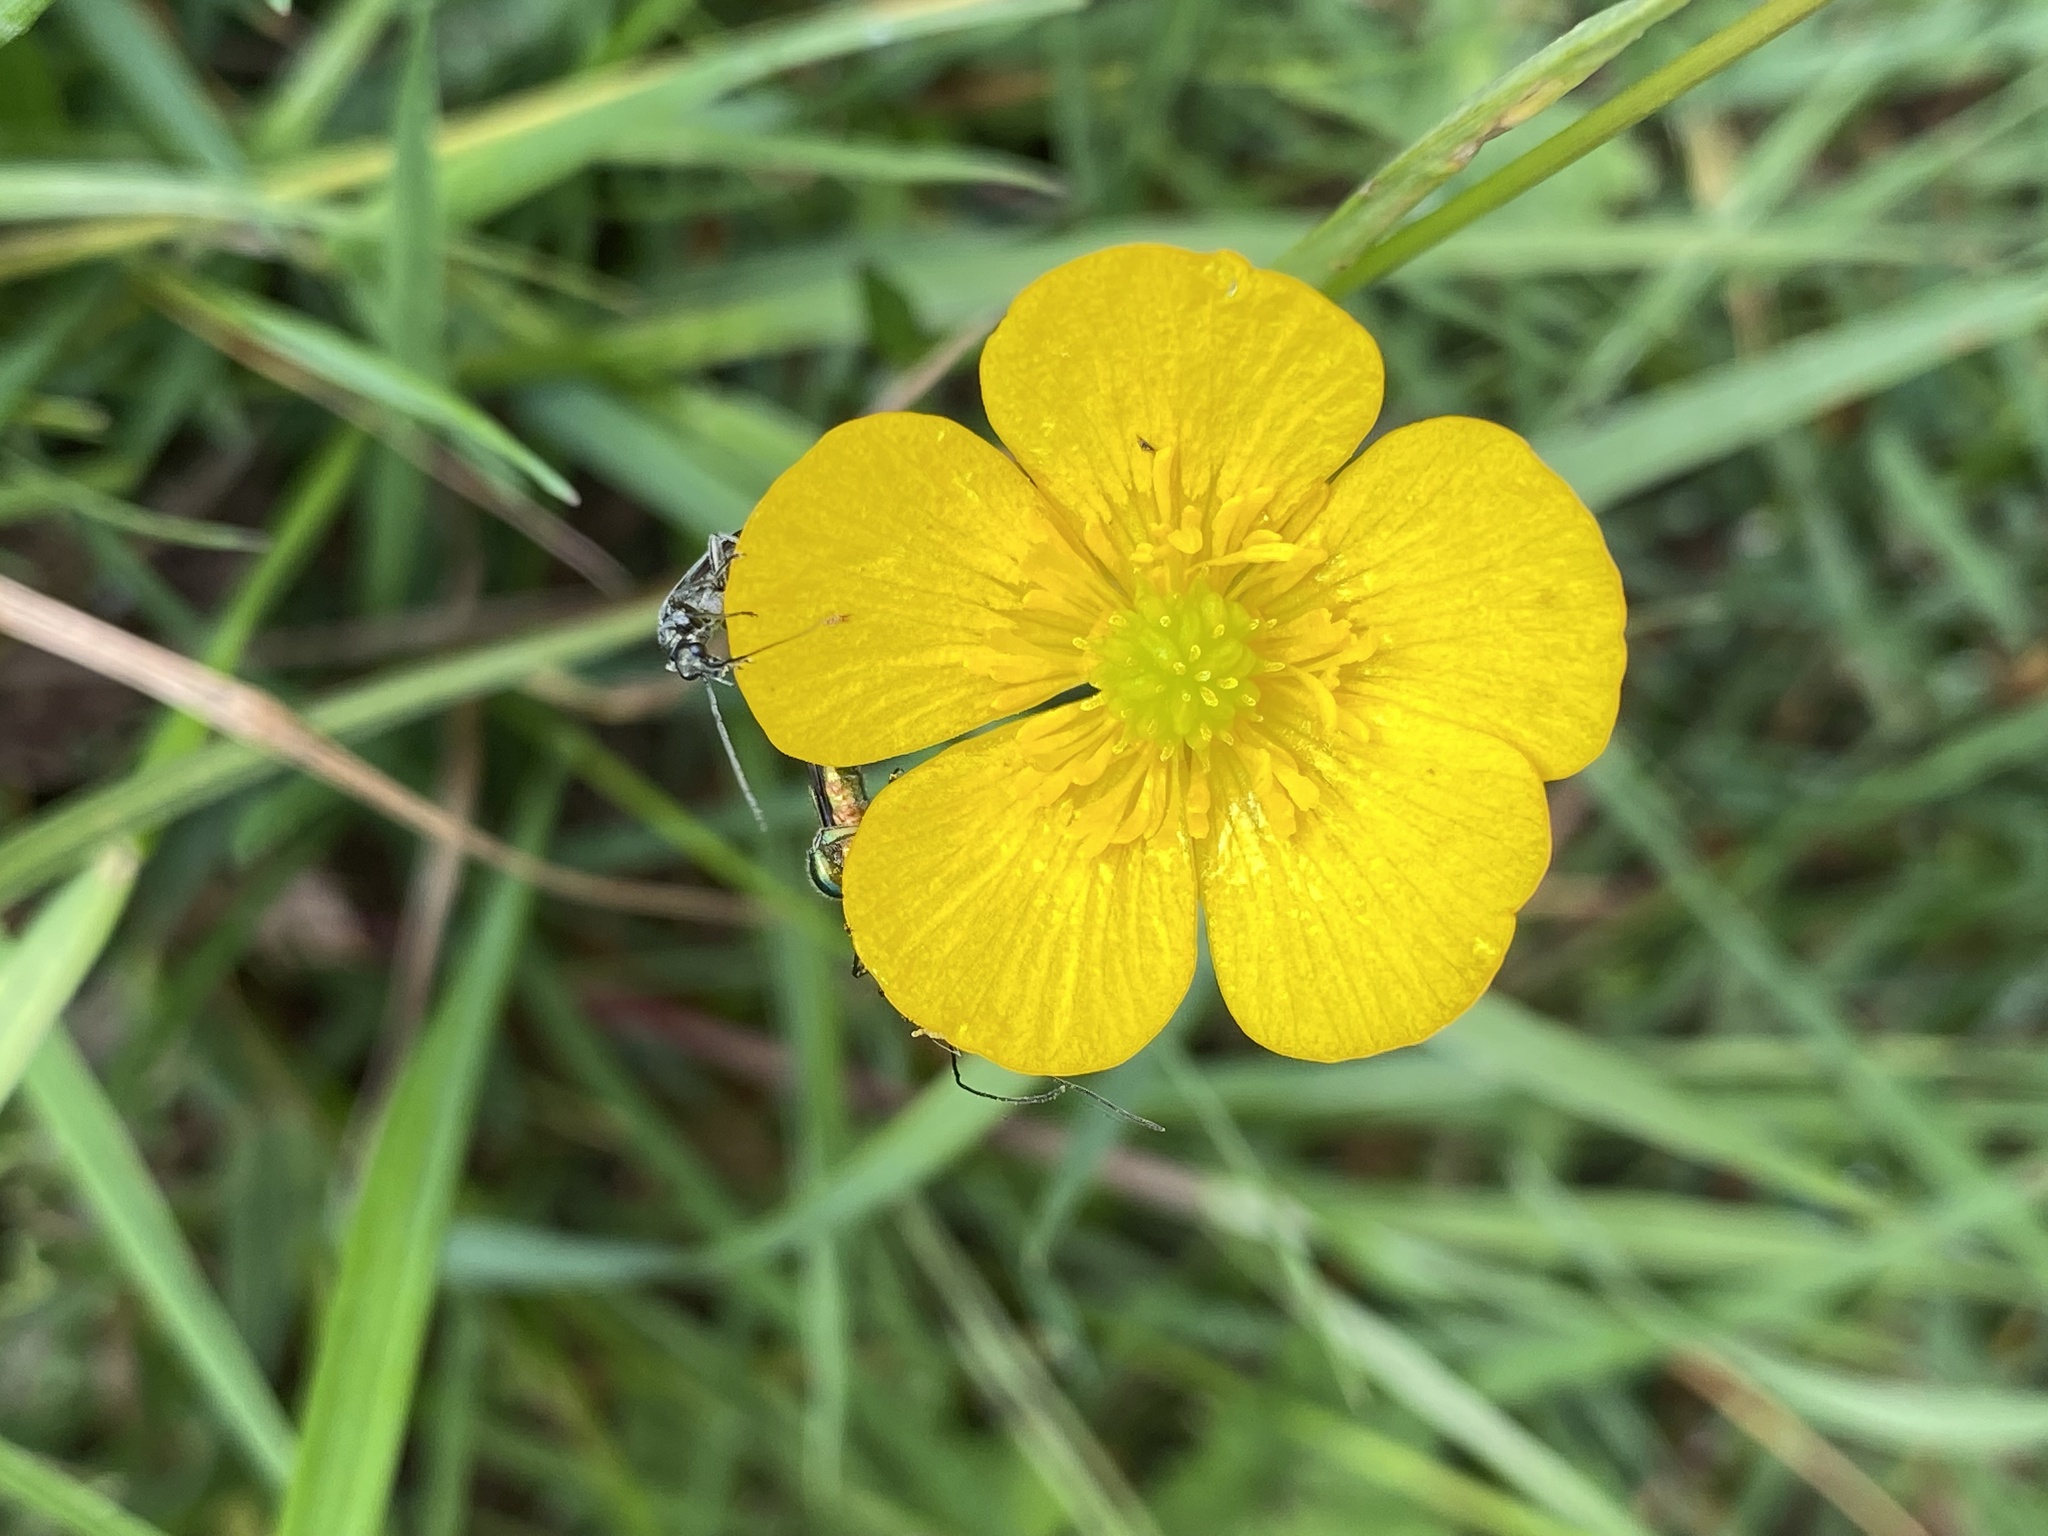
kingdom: Animalia
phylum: Arthropoda
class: Insecta
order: Coleoptera
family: Oedemeridae
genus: Oedemera
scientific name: Oedemera nobilis
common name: Swollen-thighed beetle
